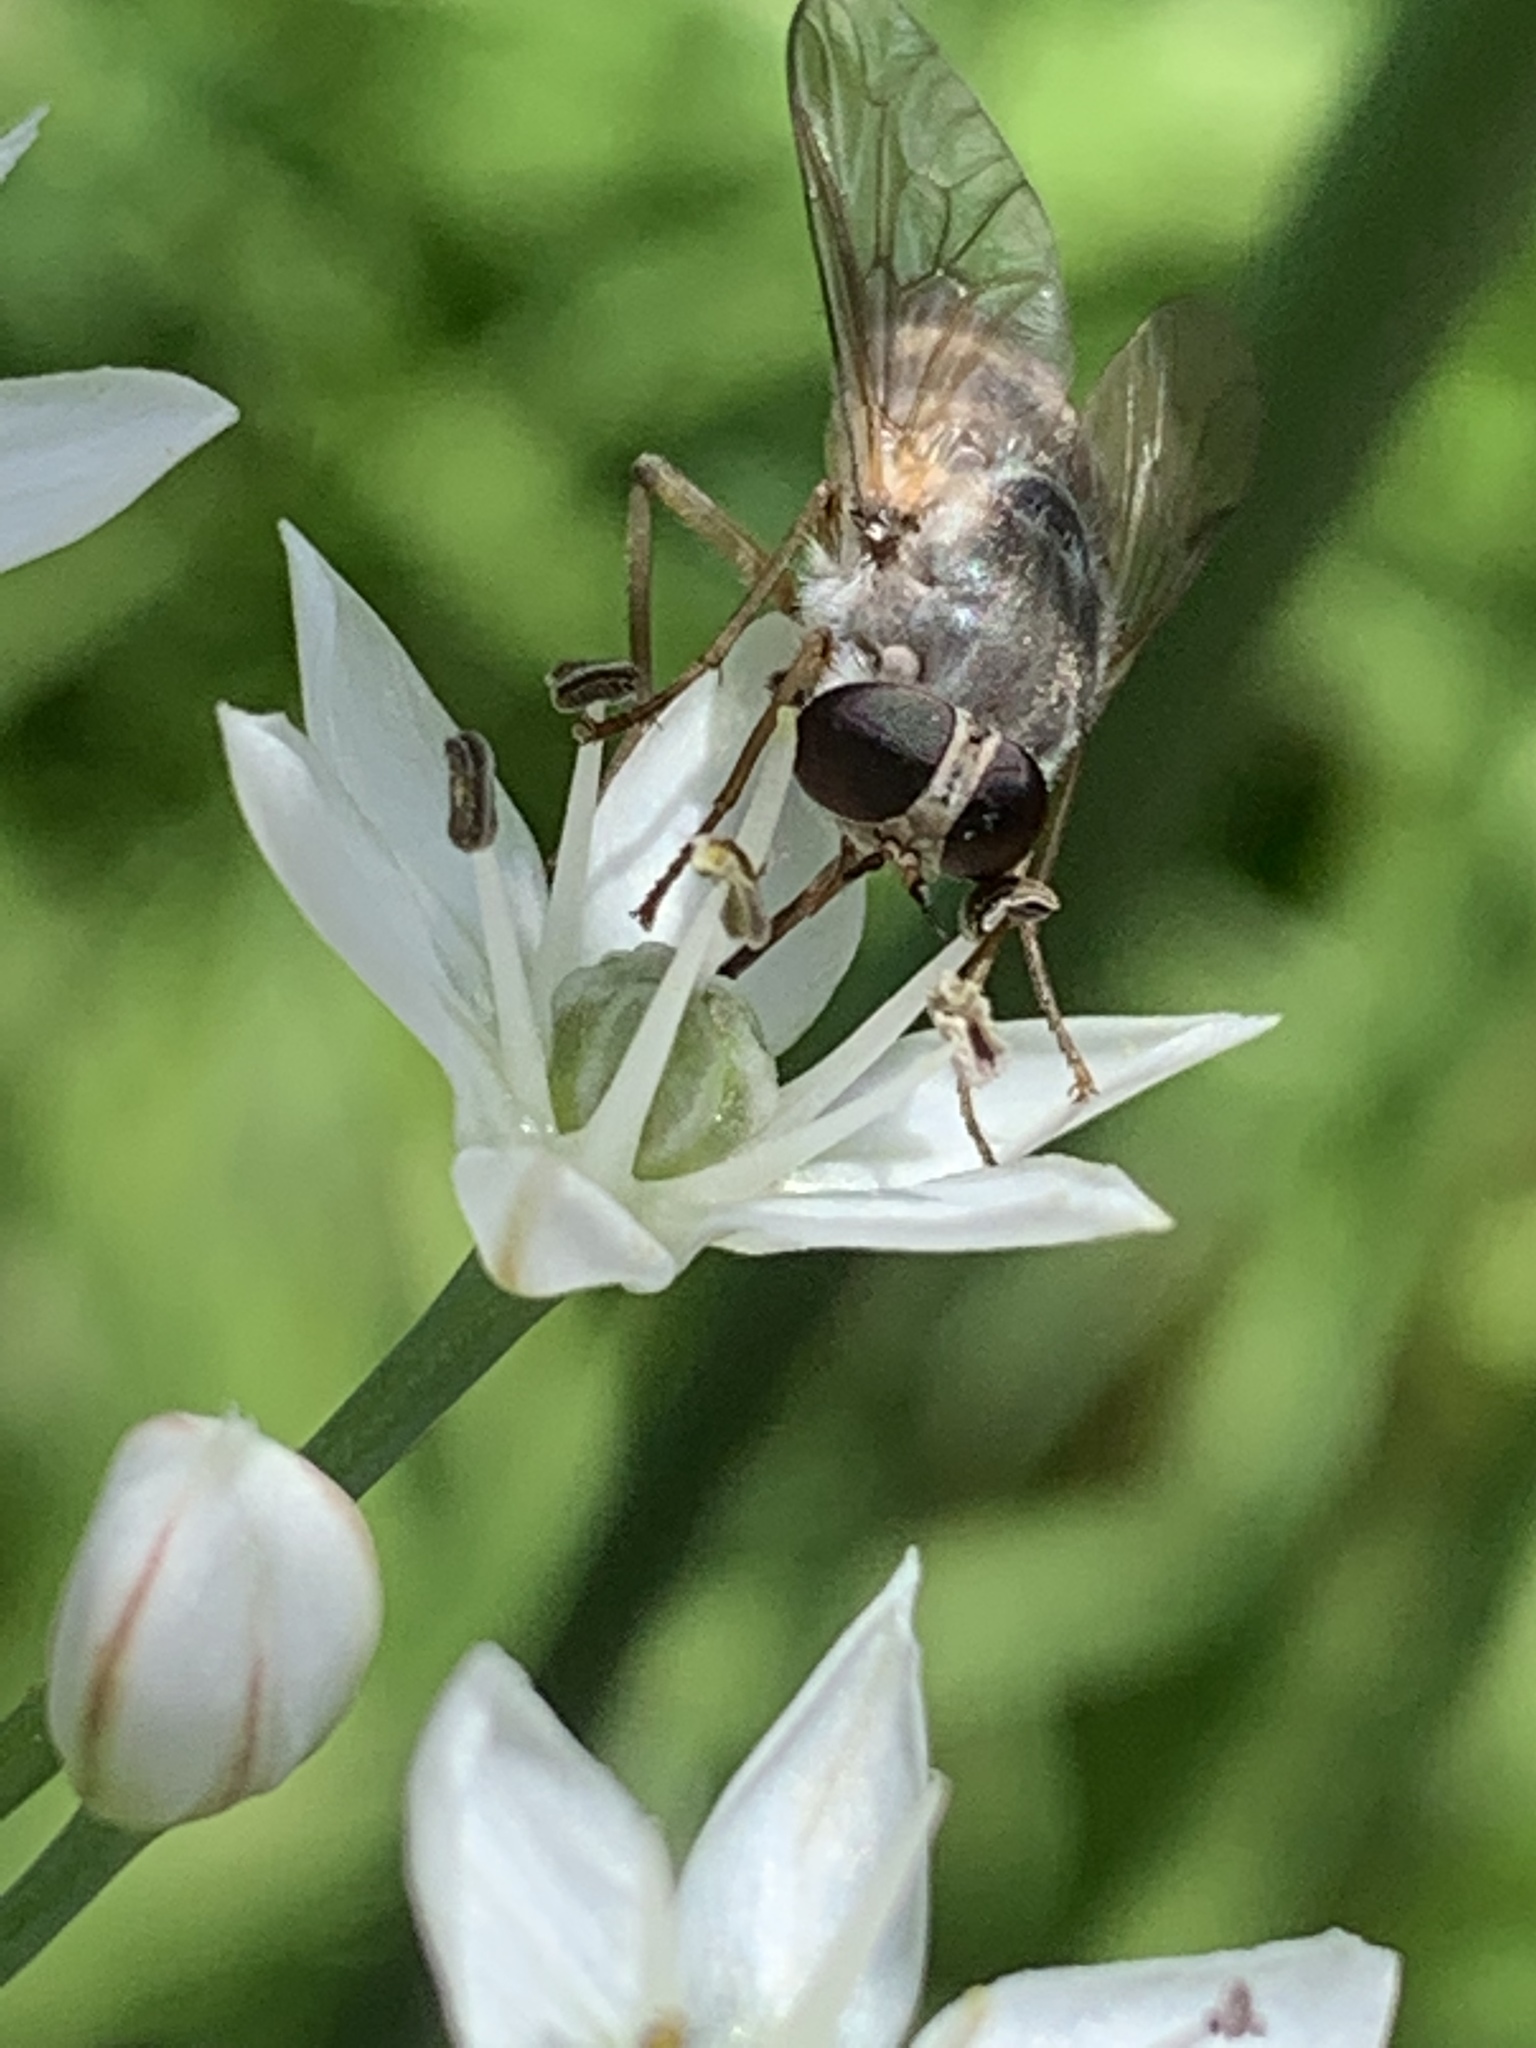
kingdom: Animalia
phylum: Arthropoda
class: Insecta
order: Diptera
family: Tabanidae
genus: Stonemyia
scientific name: Stonemyia rasa
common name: Shaved horse fly
